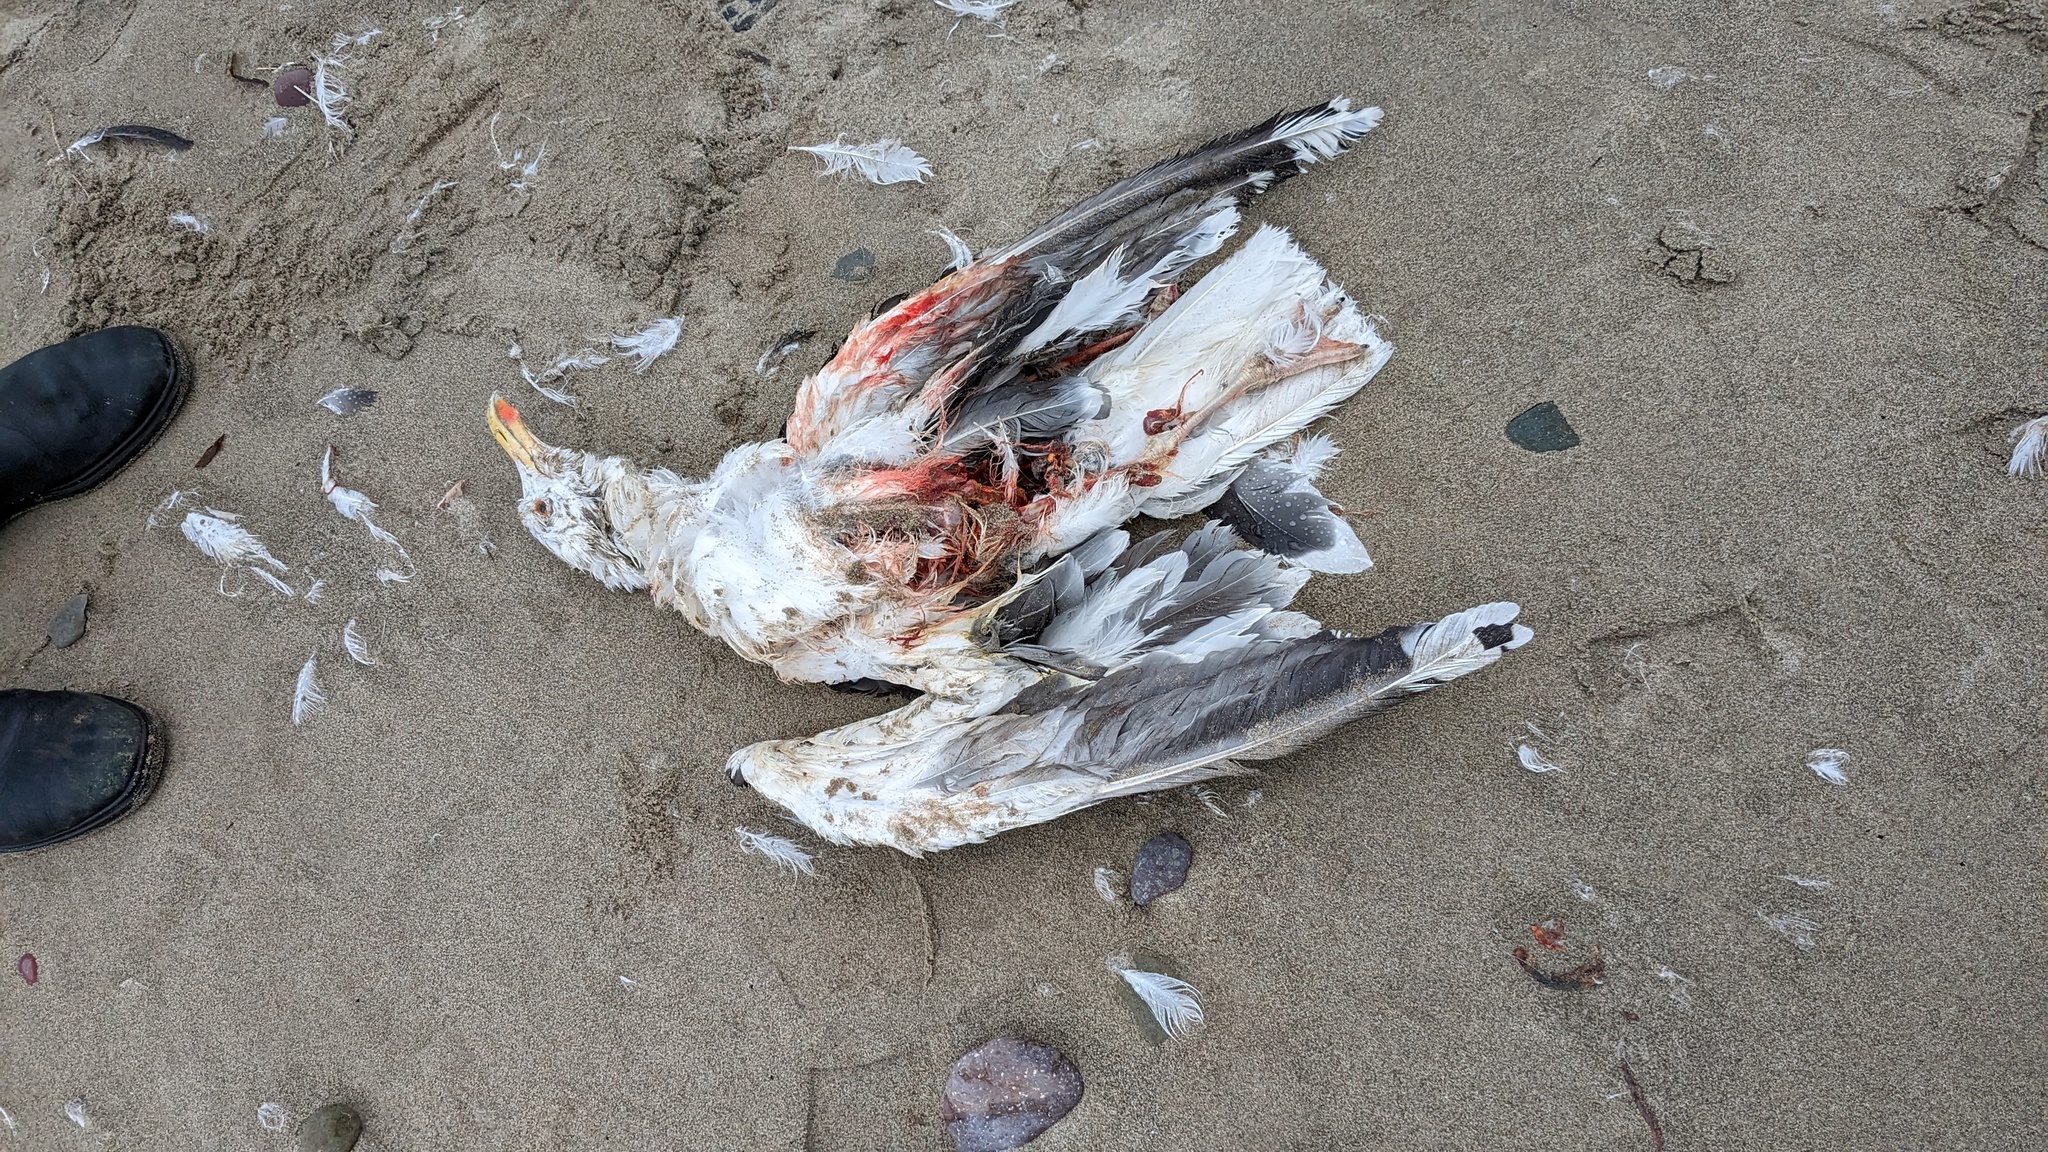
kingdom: Animalia
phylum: Chordata
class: Aves
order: Charadriiformes
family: Laridae
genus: Larus
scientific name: Larus argentatus
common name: Herring gull
